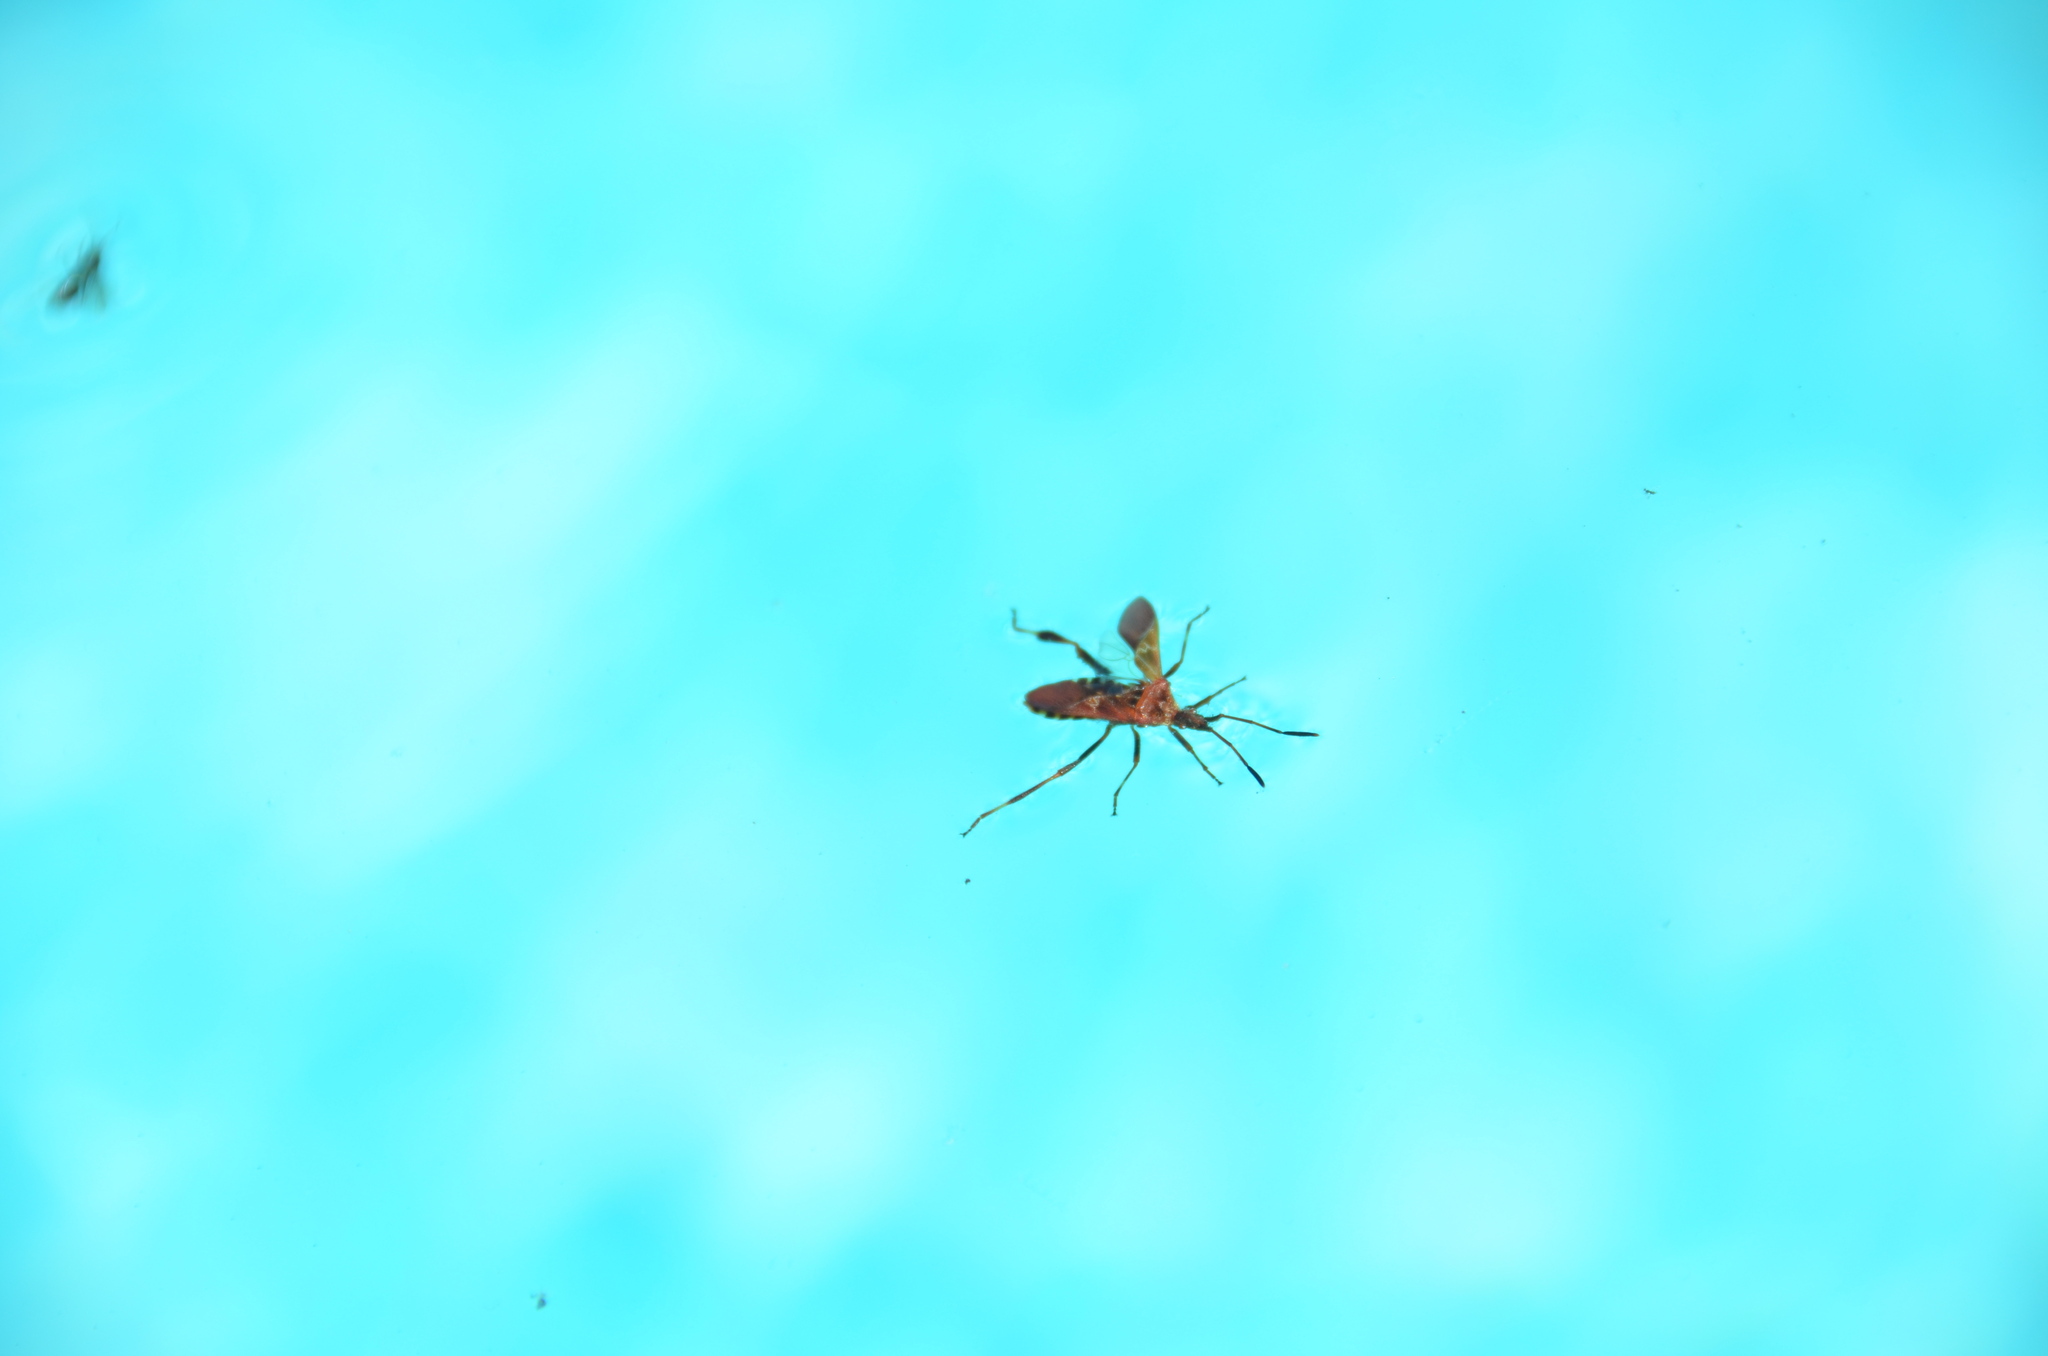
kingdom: Animalia
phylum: Arthropoda
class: Insecta
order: Hemiptera
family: Coreidae
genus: Leptoglossus
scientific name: Leptoglossus occidentalis
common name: Western conifer-seed bug
